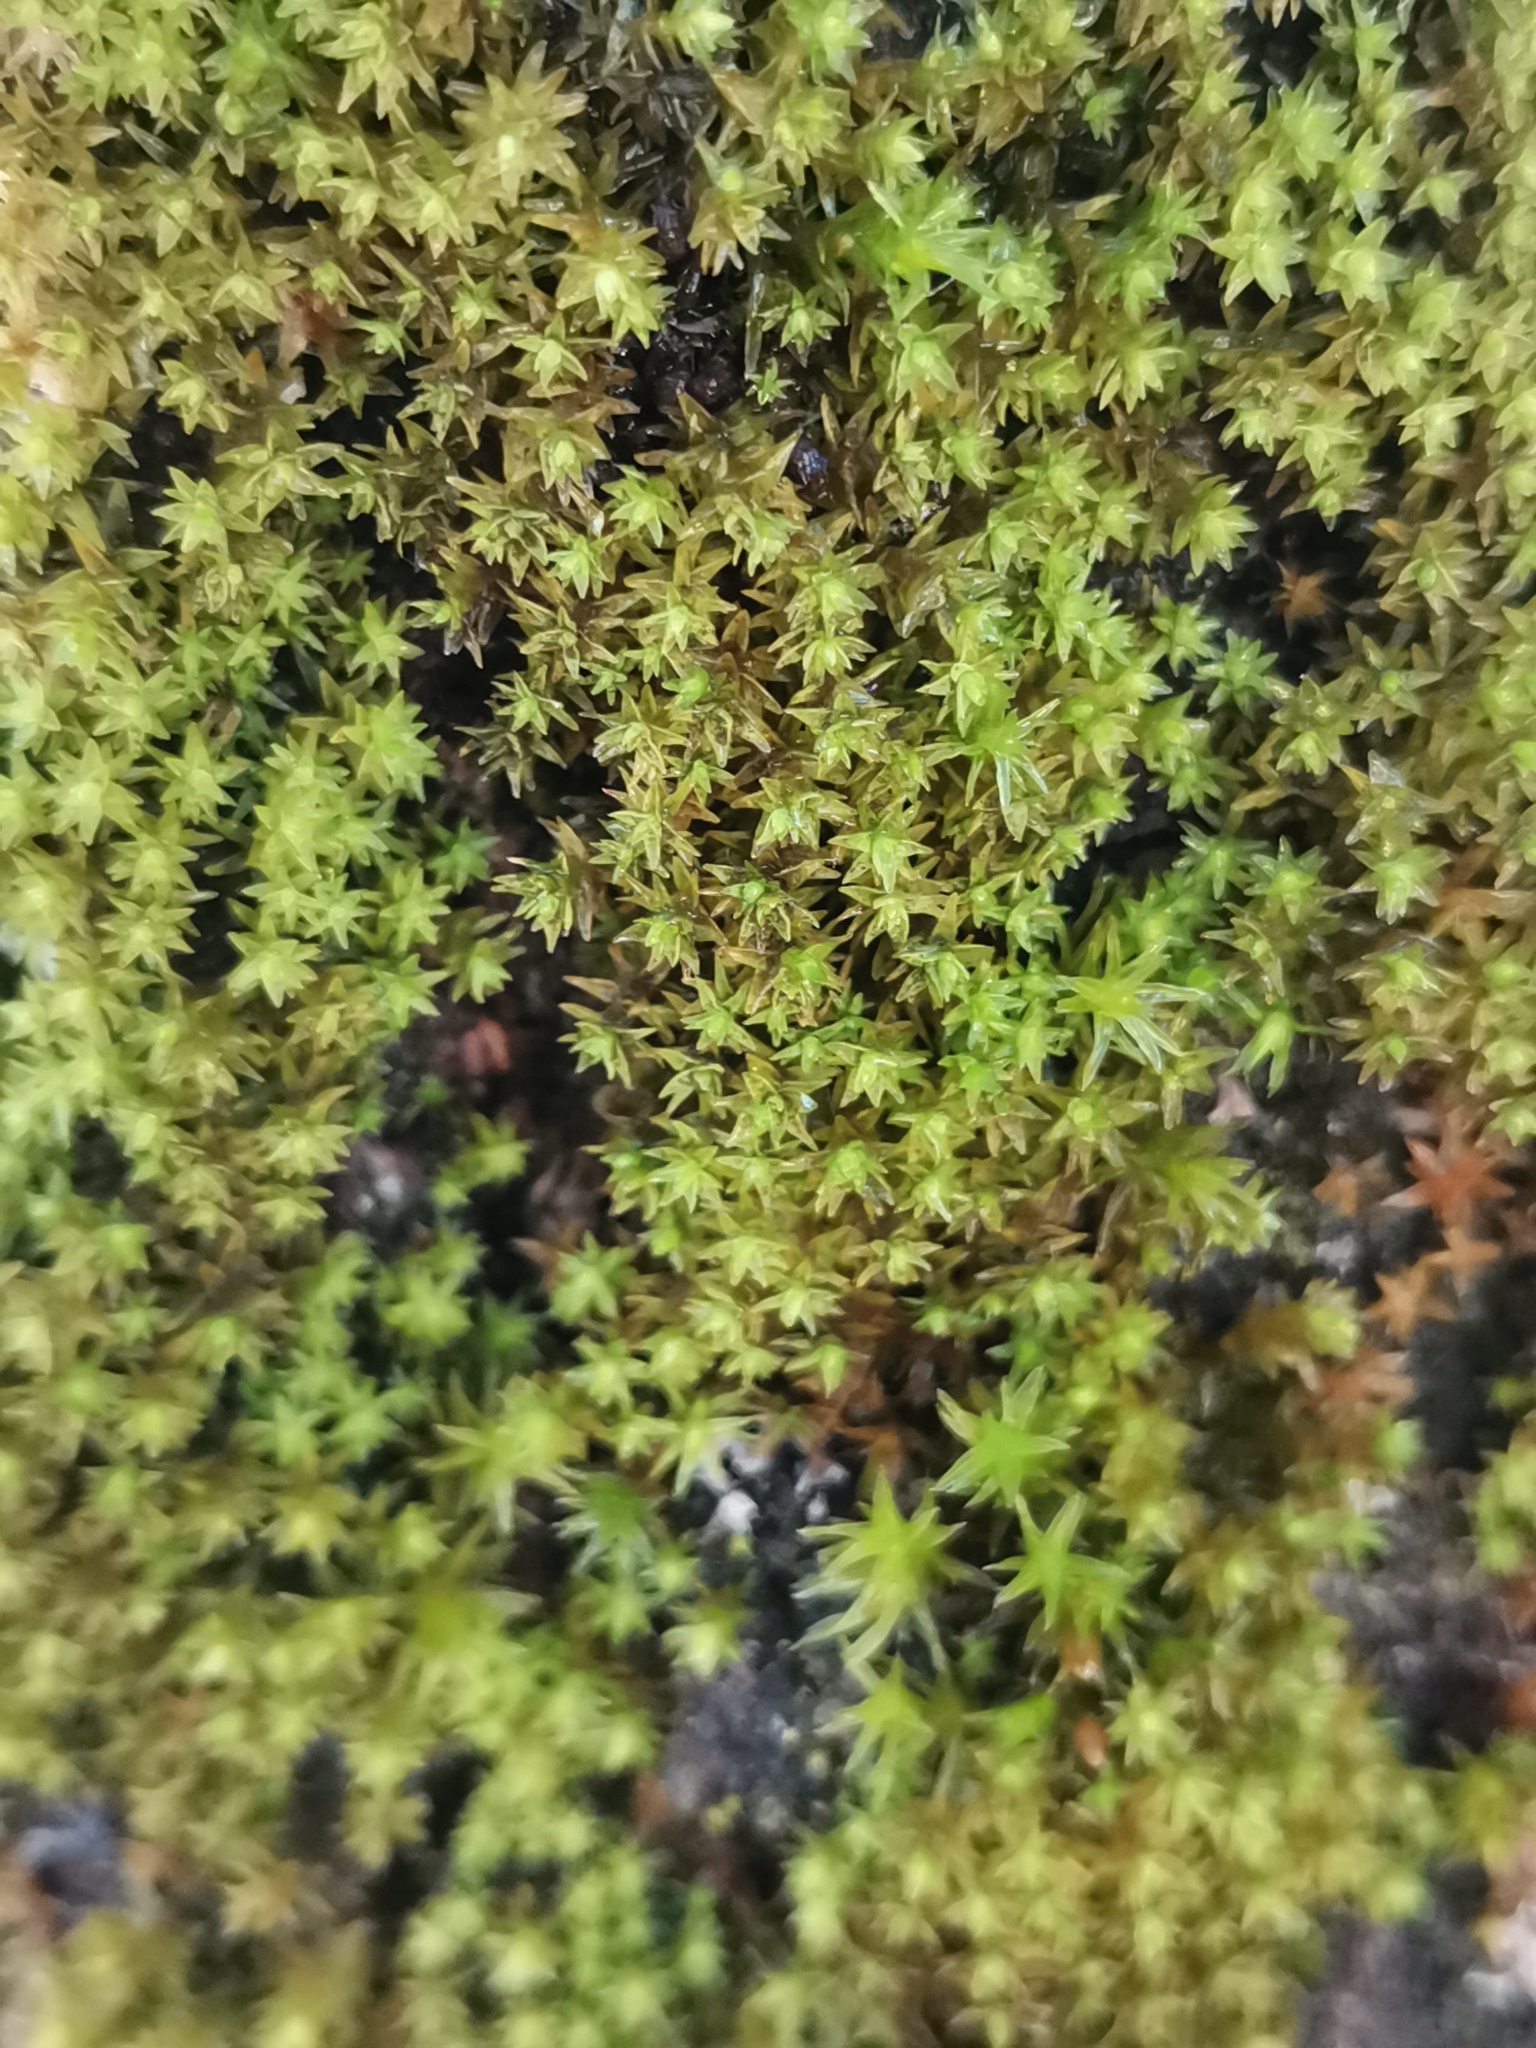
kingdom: Plantae
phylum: Bryophyta
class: Bryopsida
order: Orthotrichales
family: Orthotrichaceae
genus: Nyholmiella
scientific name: Nyholmiella obtusifolia
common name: Blunt-leaved bristle-moss
